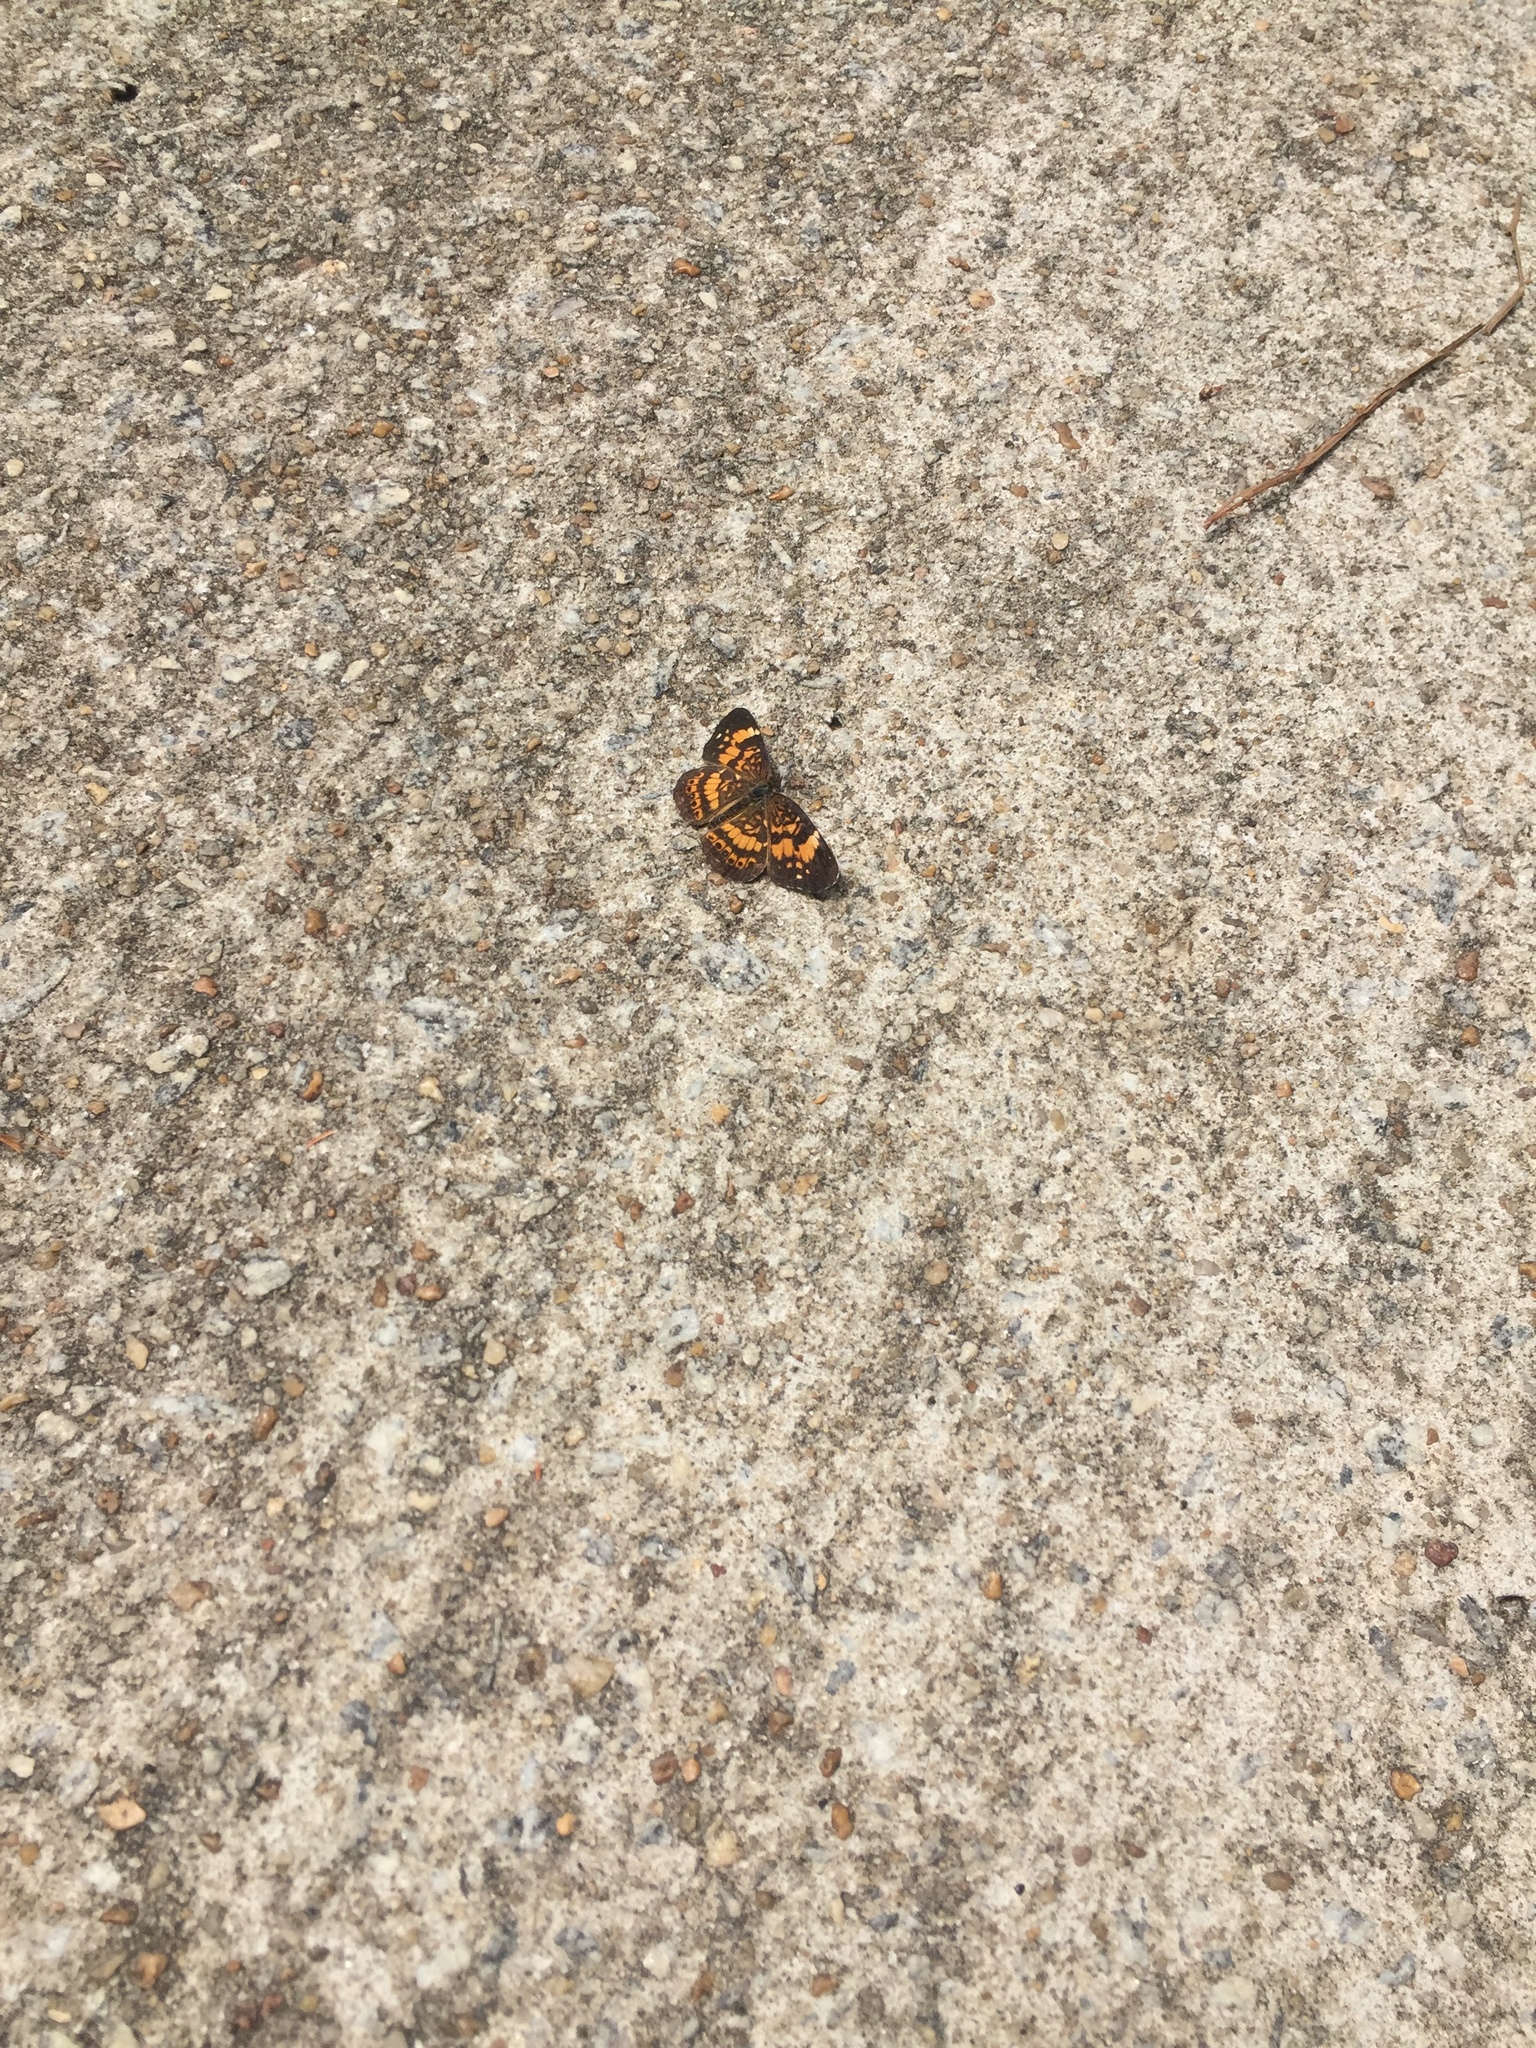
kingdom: Animalia
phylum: Arthropoda
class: Insecta
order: Lepidoptera
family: Nymphalidae
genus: Phyciodes
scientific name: Phyciodes tharos
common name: Pearl crescent
